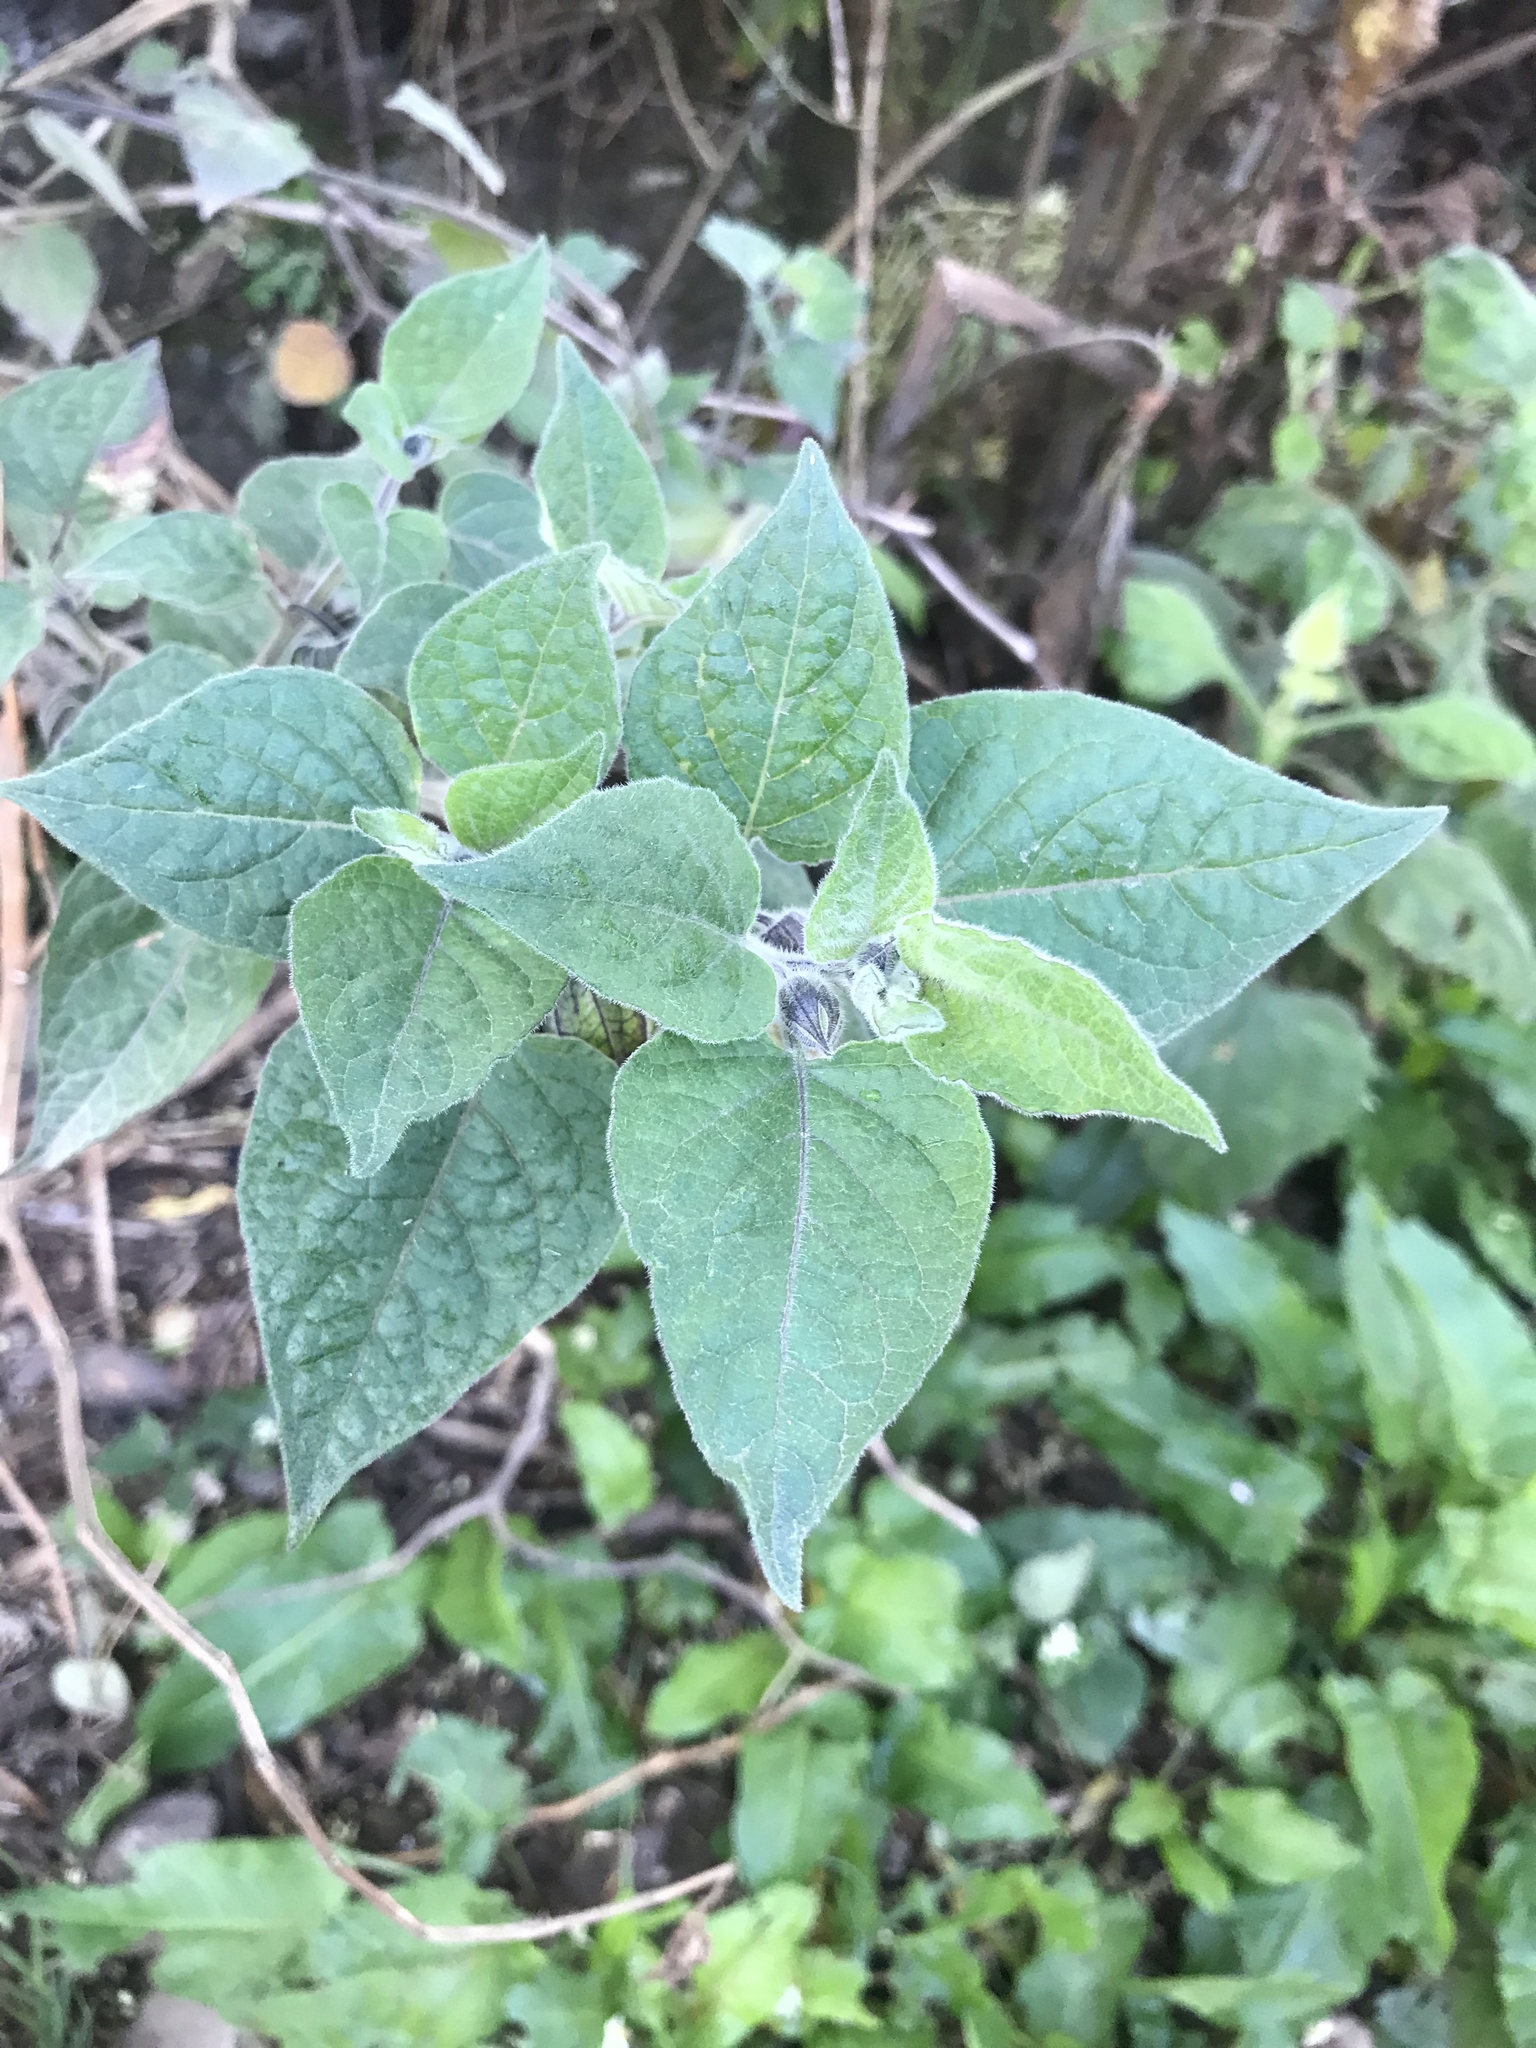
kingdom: Plantae
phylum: Tracheophyta
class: Magnoliopsida
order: Solanales
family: Solanaceae
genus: Physalis
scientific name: Physalis peruviana
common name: Cape-gooseberry
